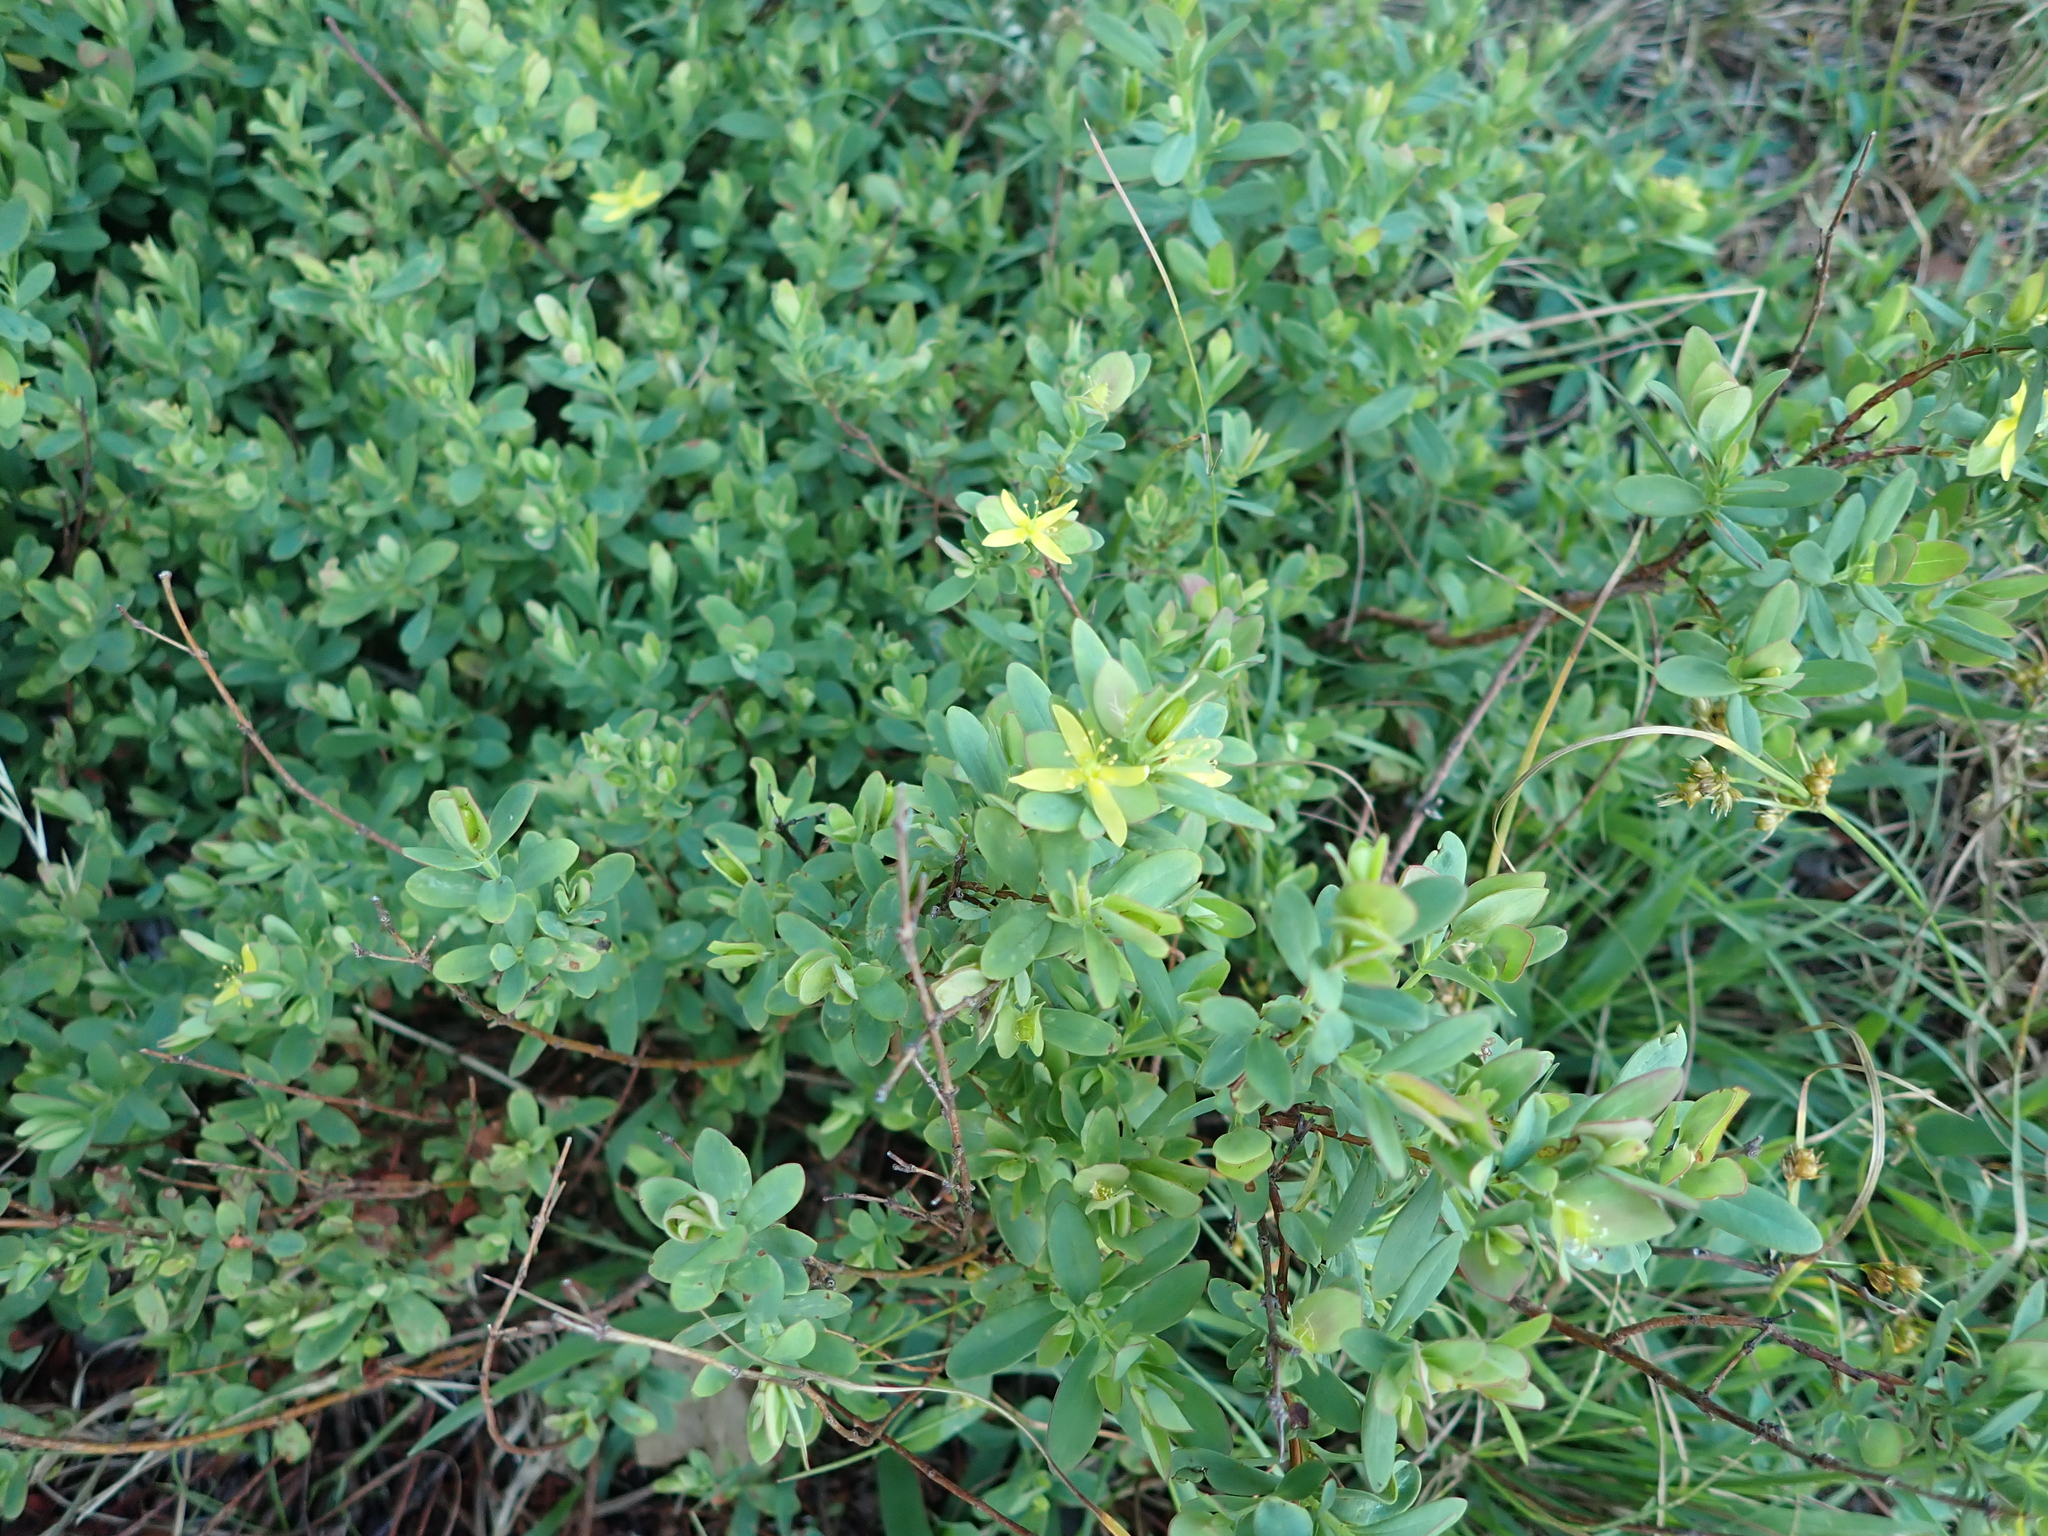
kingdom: Plantae
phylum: Tracheophyta
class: Magnoliopsida
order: Malpighiales
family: Hypericaceae
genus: Hypericum
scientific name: Hypericum hypericoides
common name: St. andrew's cross
